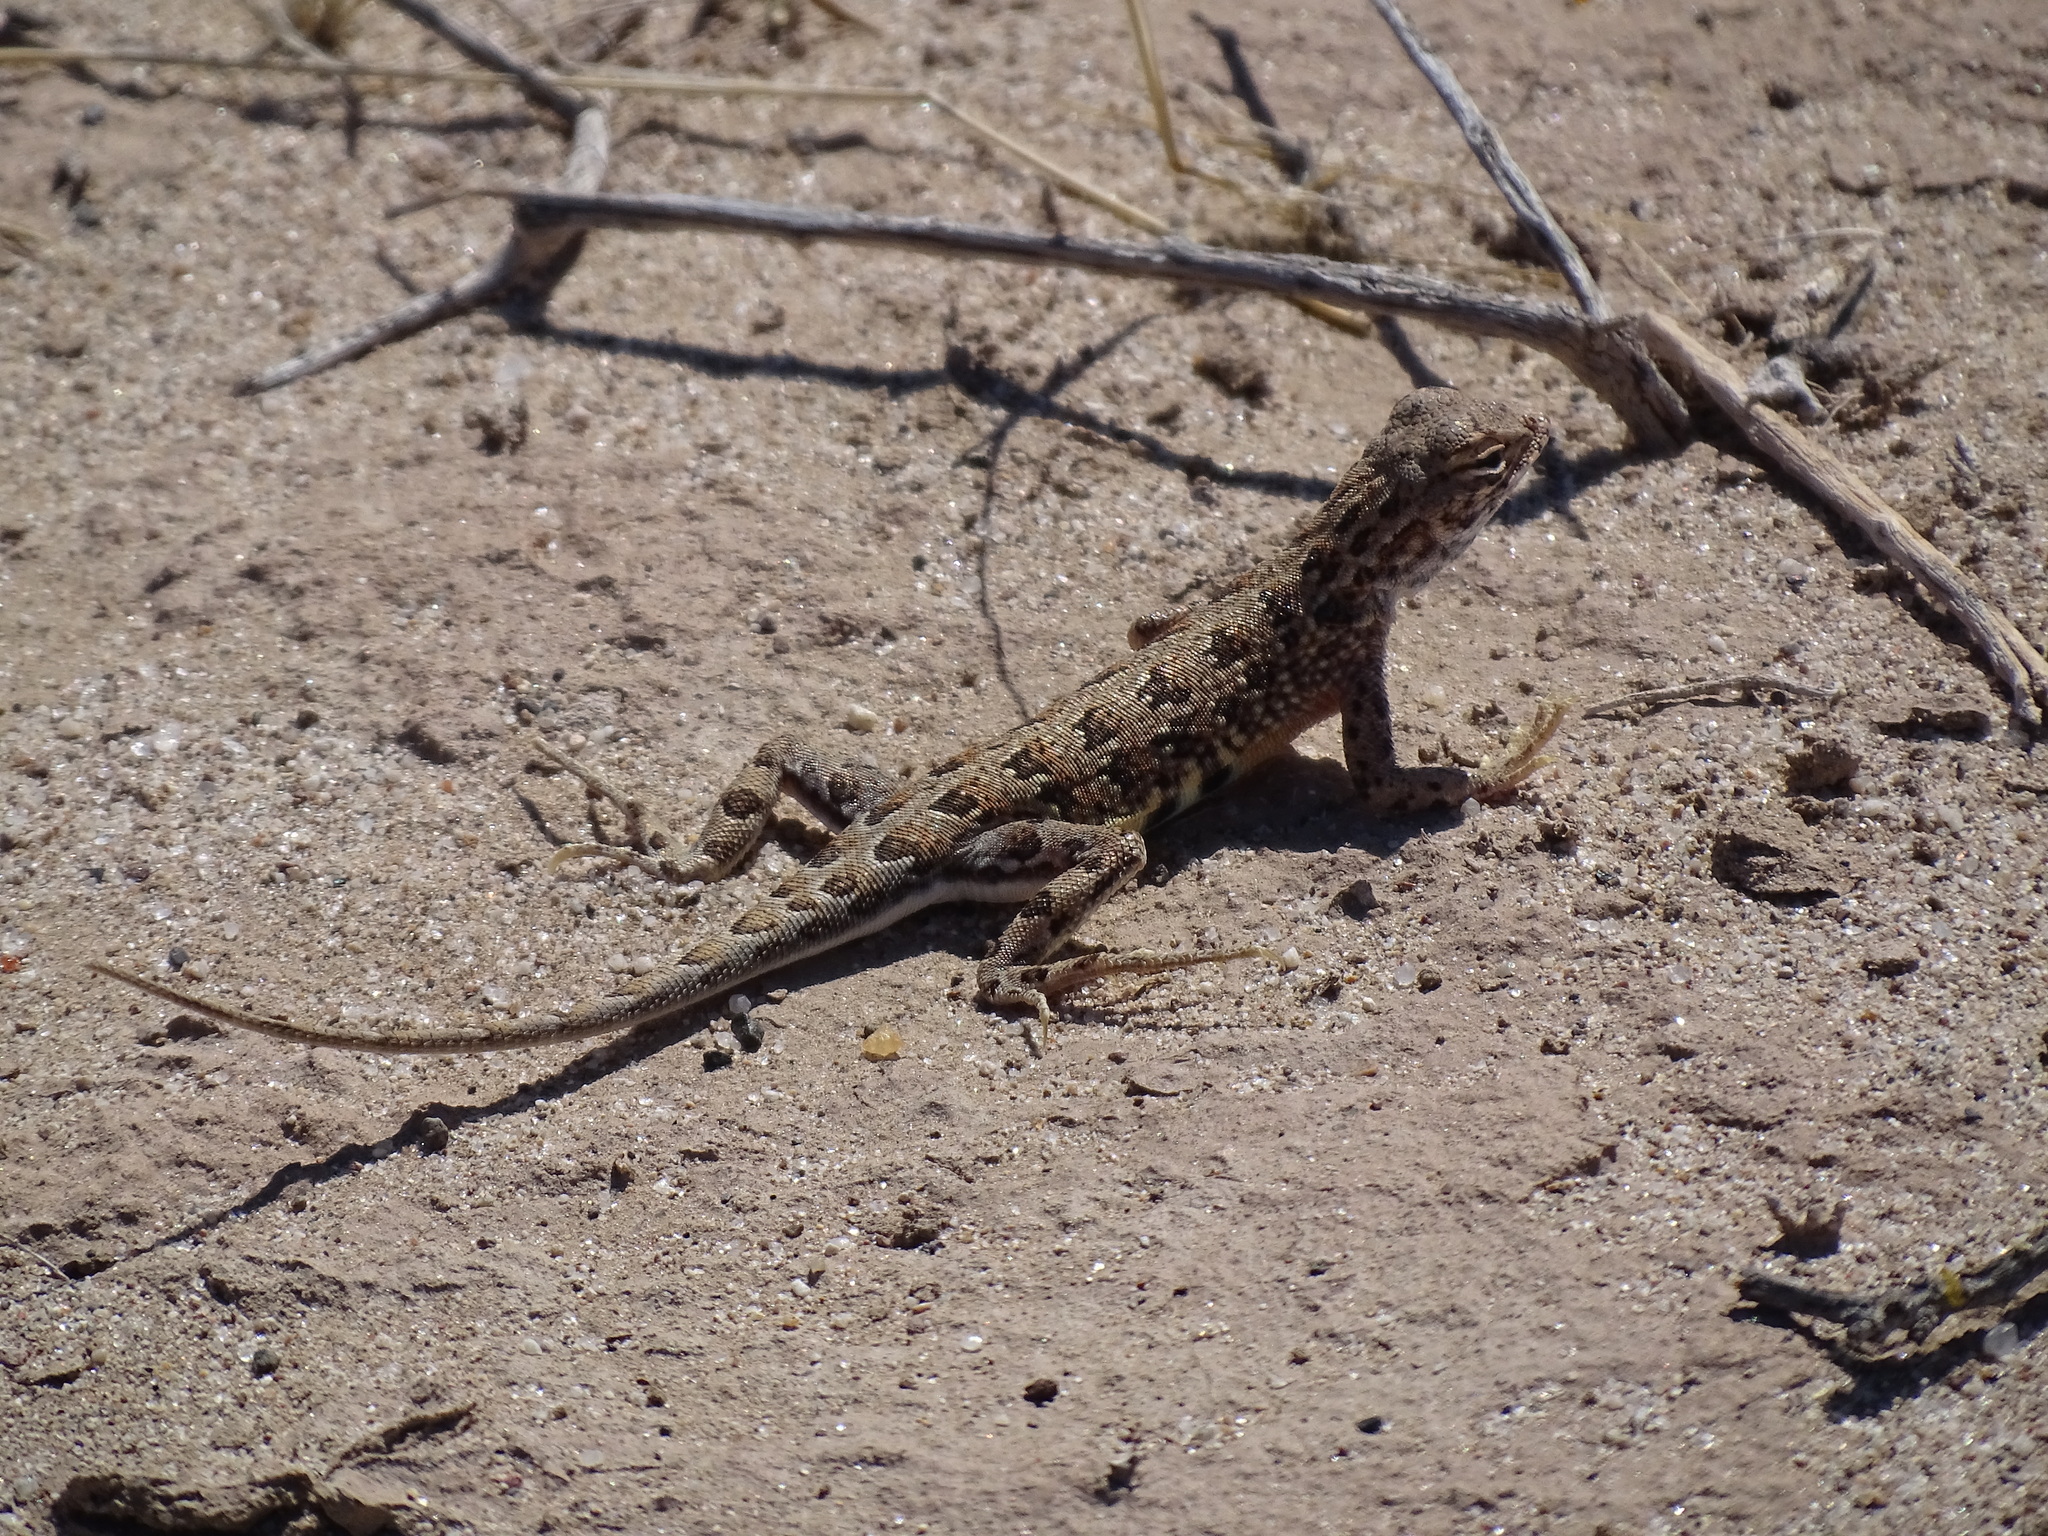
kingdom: Animalia
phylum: Chordata
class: Squamata
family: Phrynosomatidae
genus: Holbrookia
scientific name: Holbrookia elegans
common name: Elegant earless lizard
